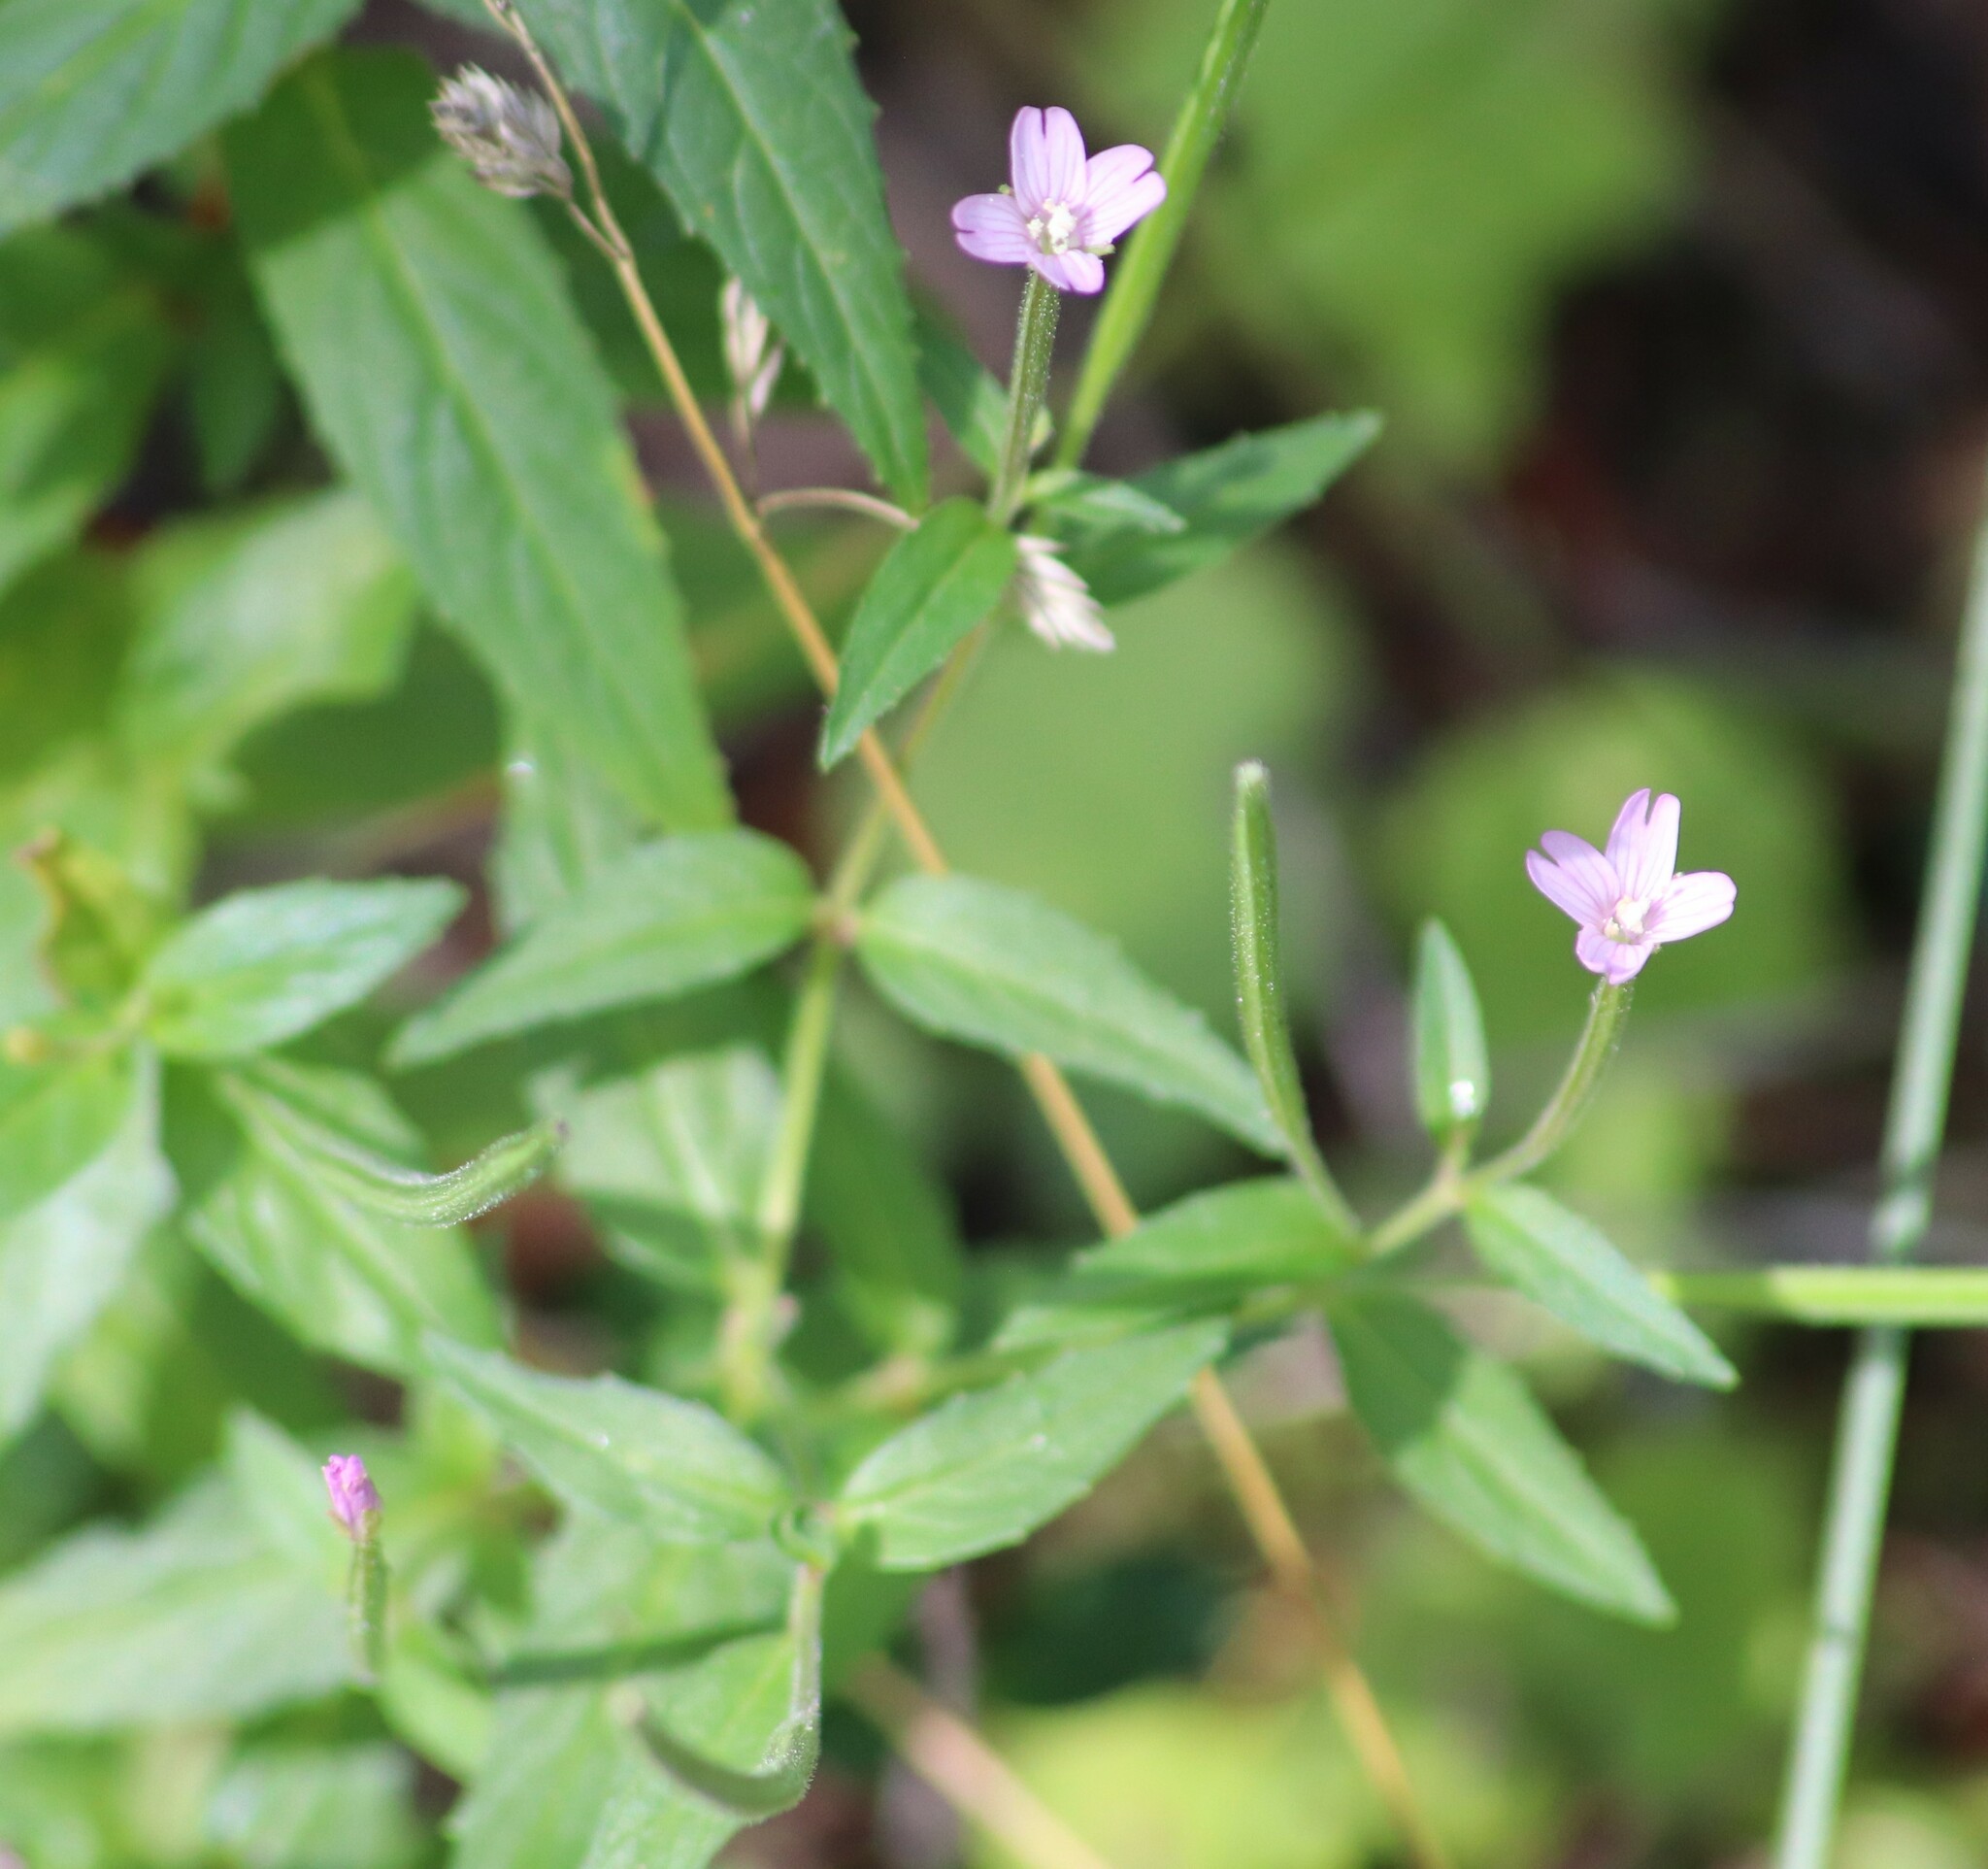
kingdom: Plantae
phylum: Tracheophyta
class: Magnoliopsida
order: Myrtales
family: Onagraceae
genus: Epilobium
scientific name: Epilobium ciliatum
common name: American willowherb
